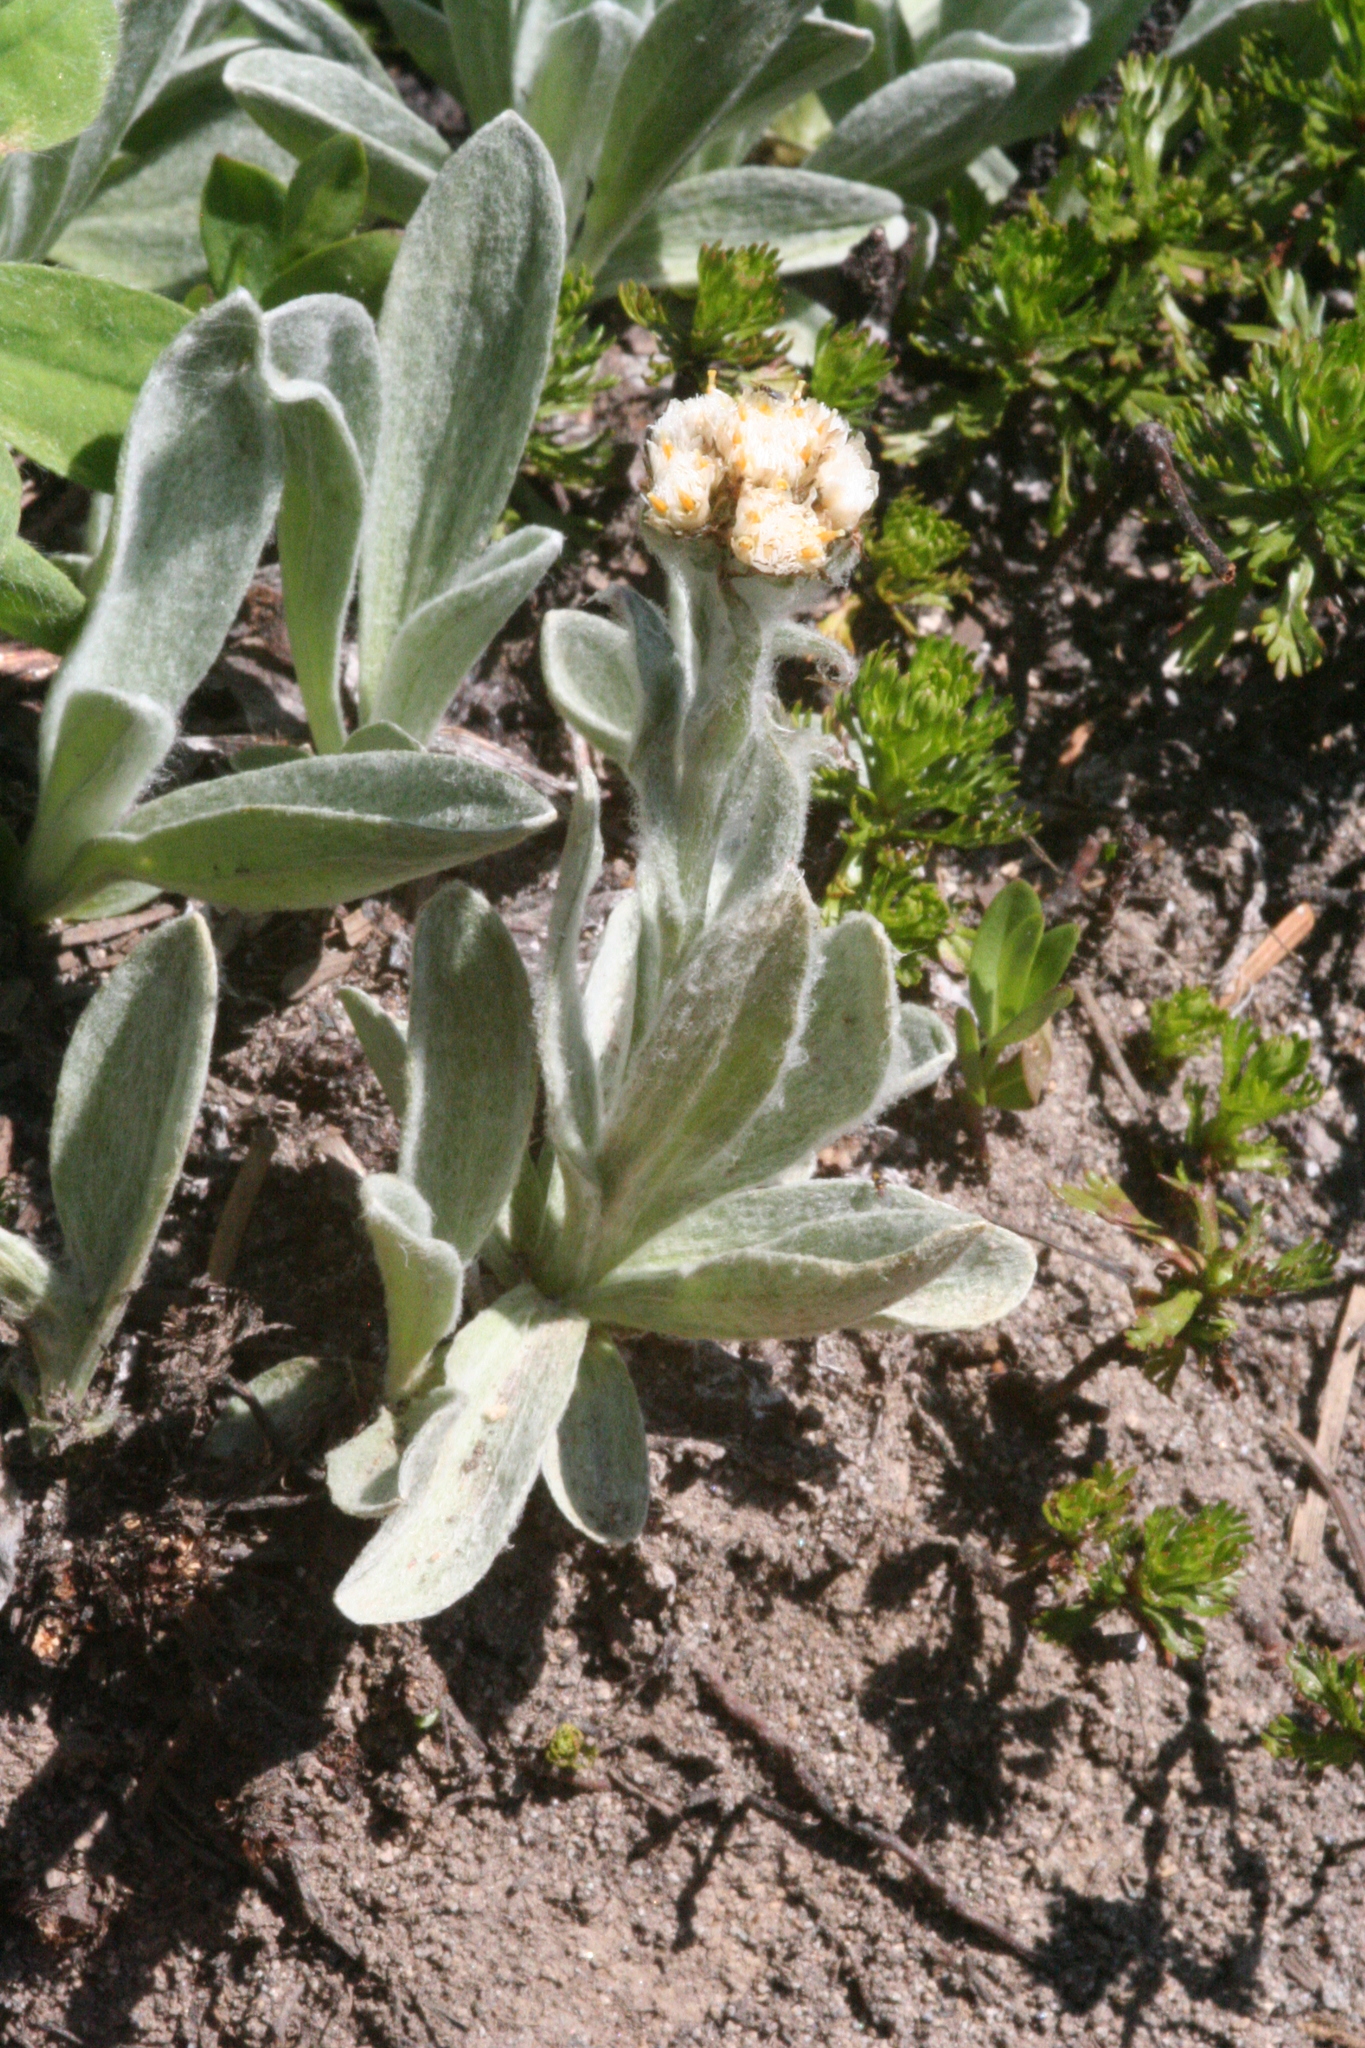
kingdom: Plantae
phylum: Tracheophyta
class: Magnoliopsida
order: Asterales
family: Asteraceae
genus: Antennaria
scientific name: Antennaria lanata
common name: Woolly pussytoes
